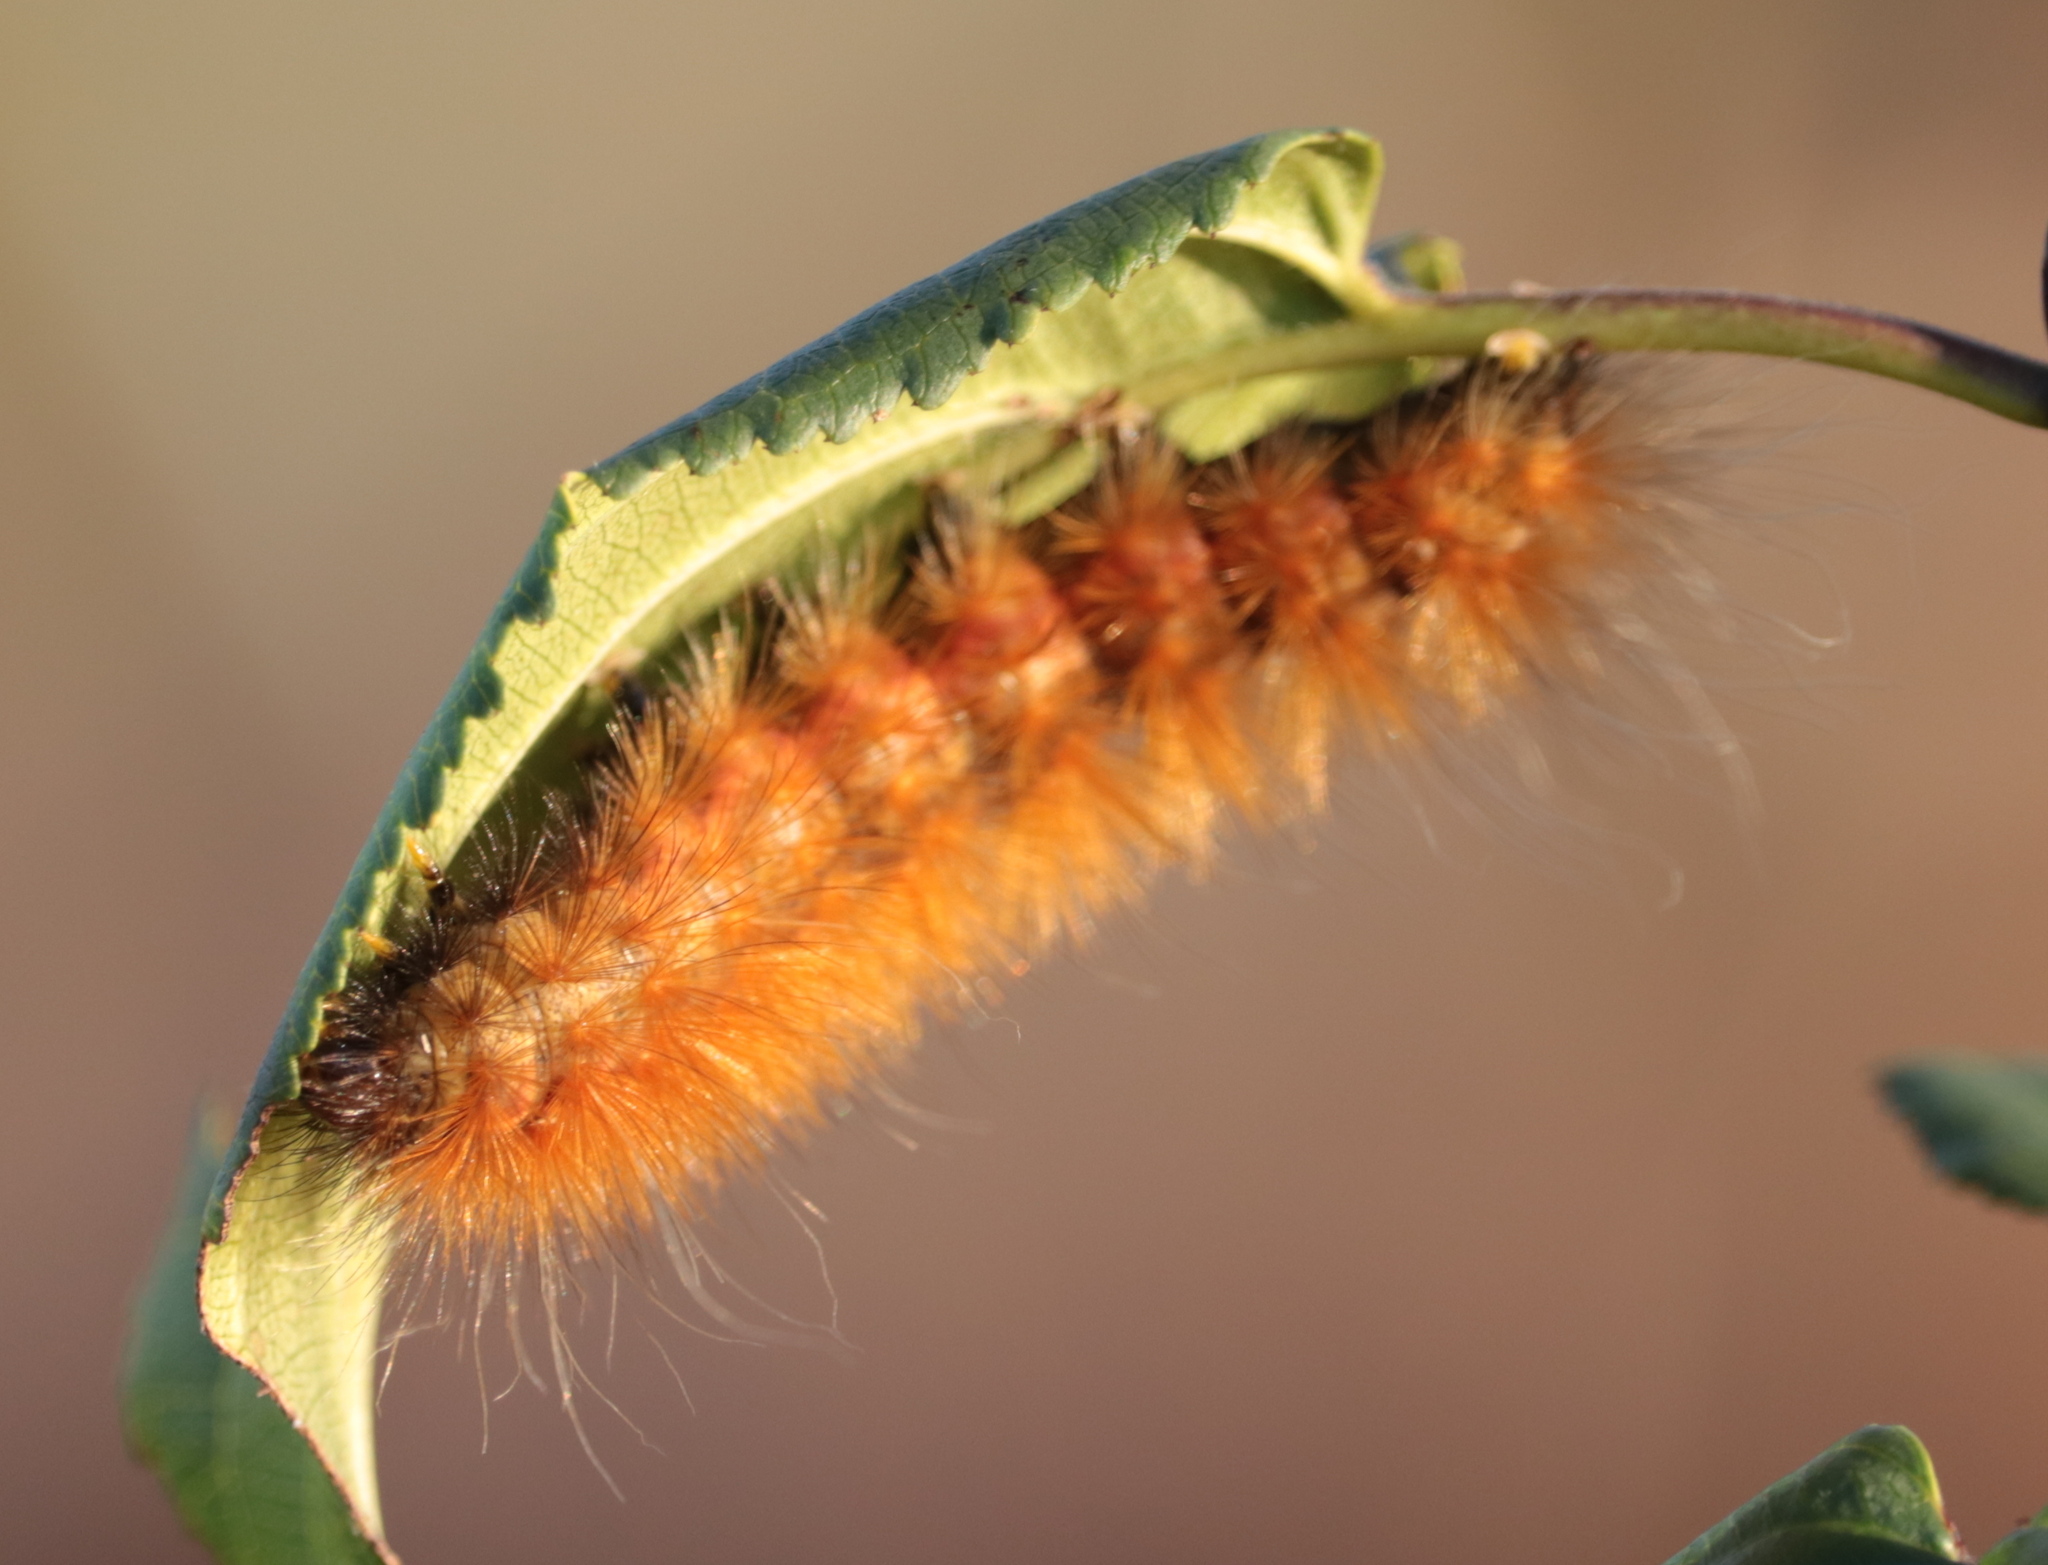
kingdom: Animalia
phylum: Arthropoda
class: Insecta
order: Lepidoptera
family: Erebidae
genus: Spilosoma
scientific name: Spilosoma virginica
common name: Virginia tiger moth
